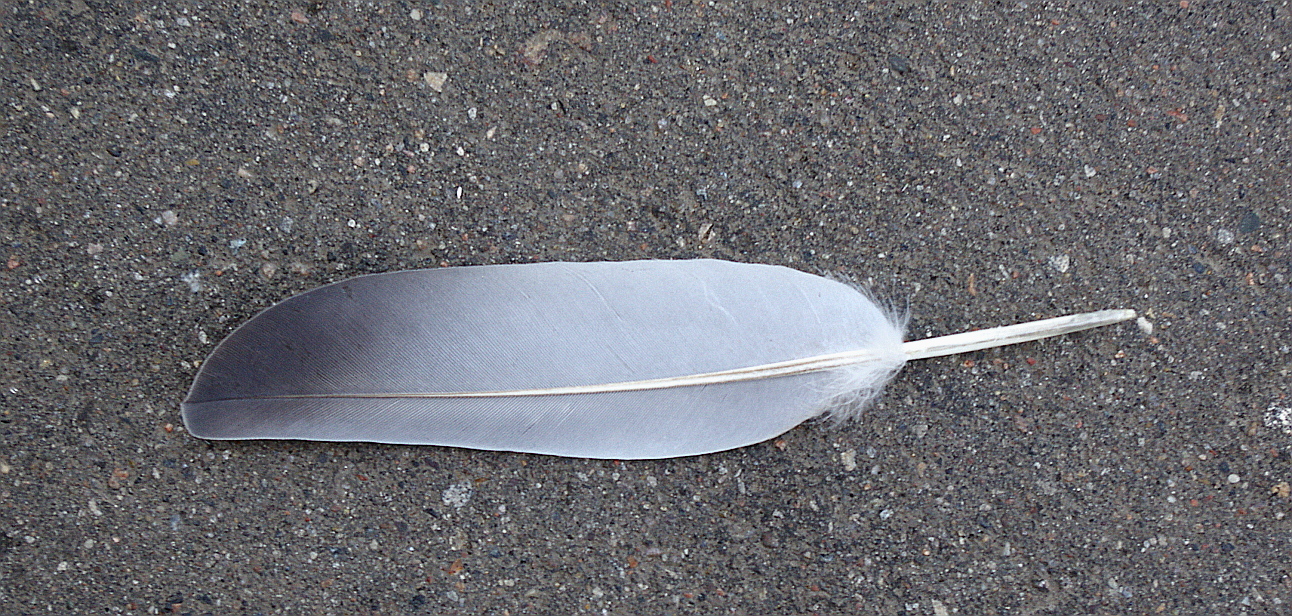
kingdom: Animalia
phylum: Chordata
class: Aves
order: Columbiformes
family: Columbidae
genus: Columba
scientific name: Columba livia
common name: Rock pigeon
